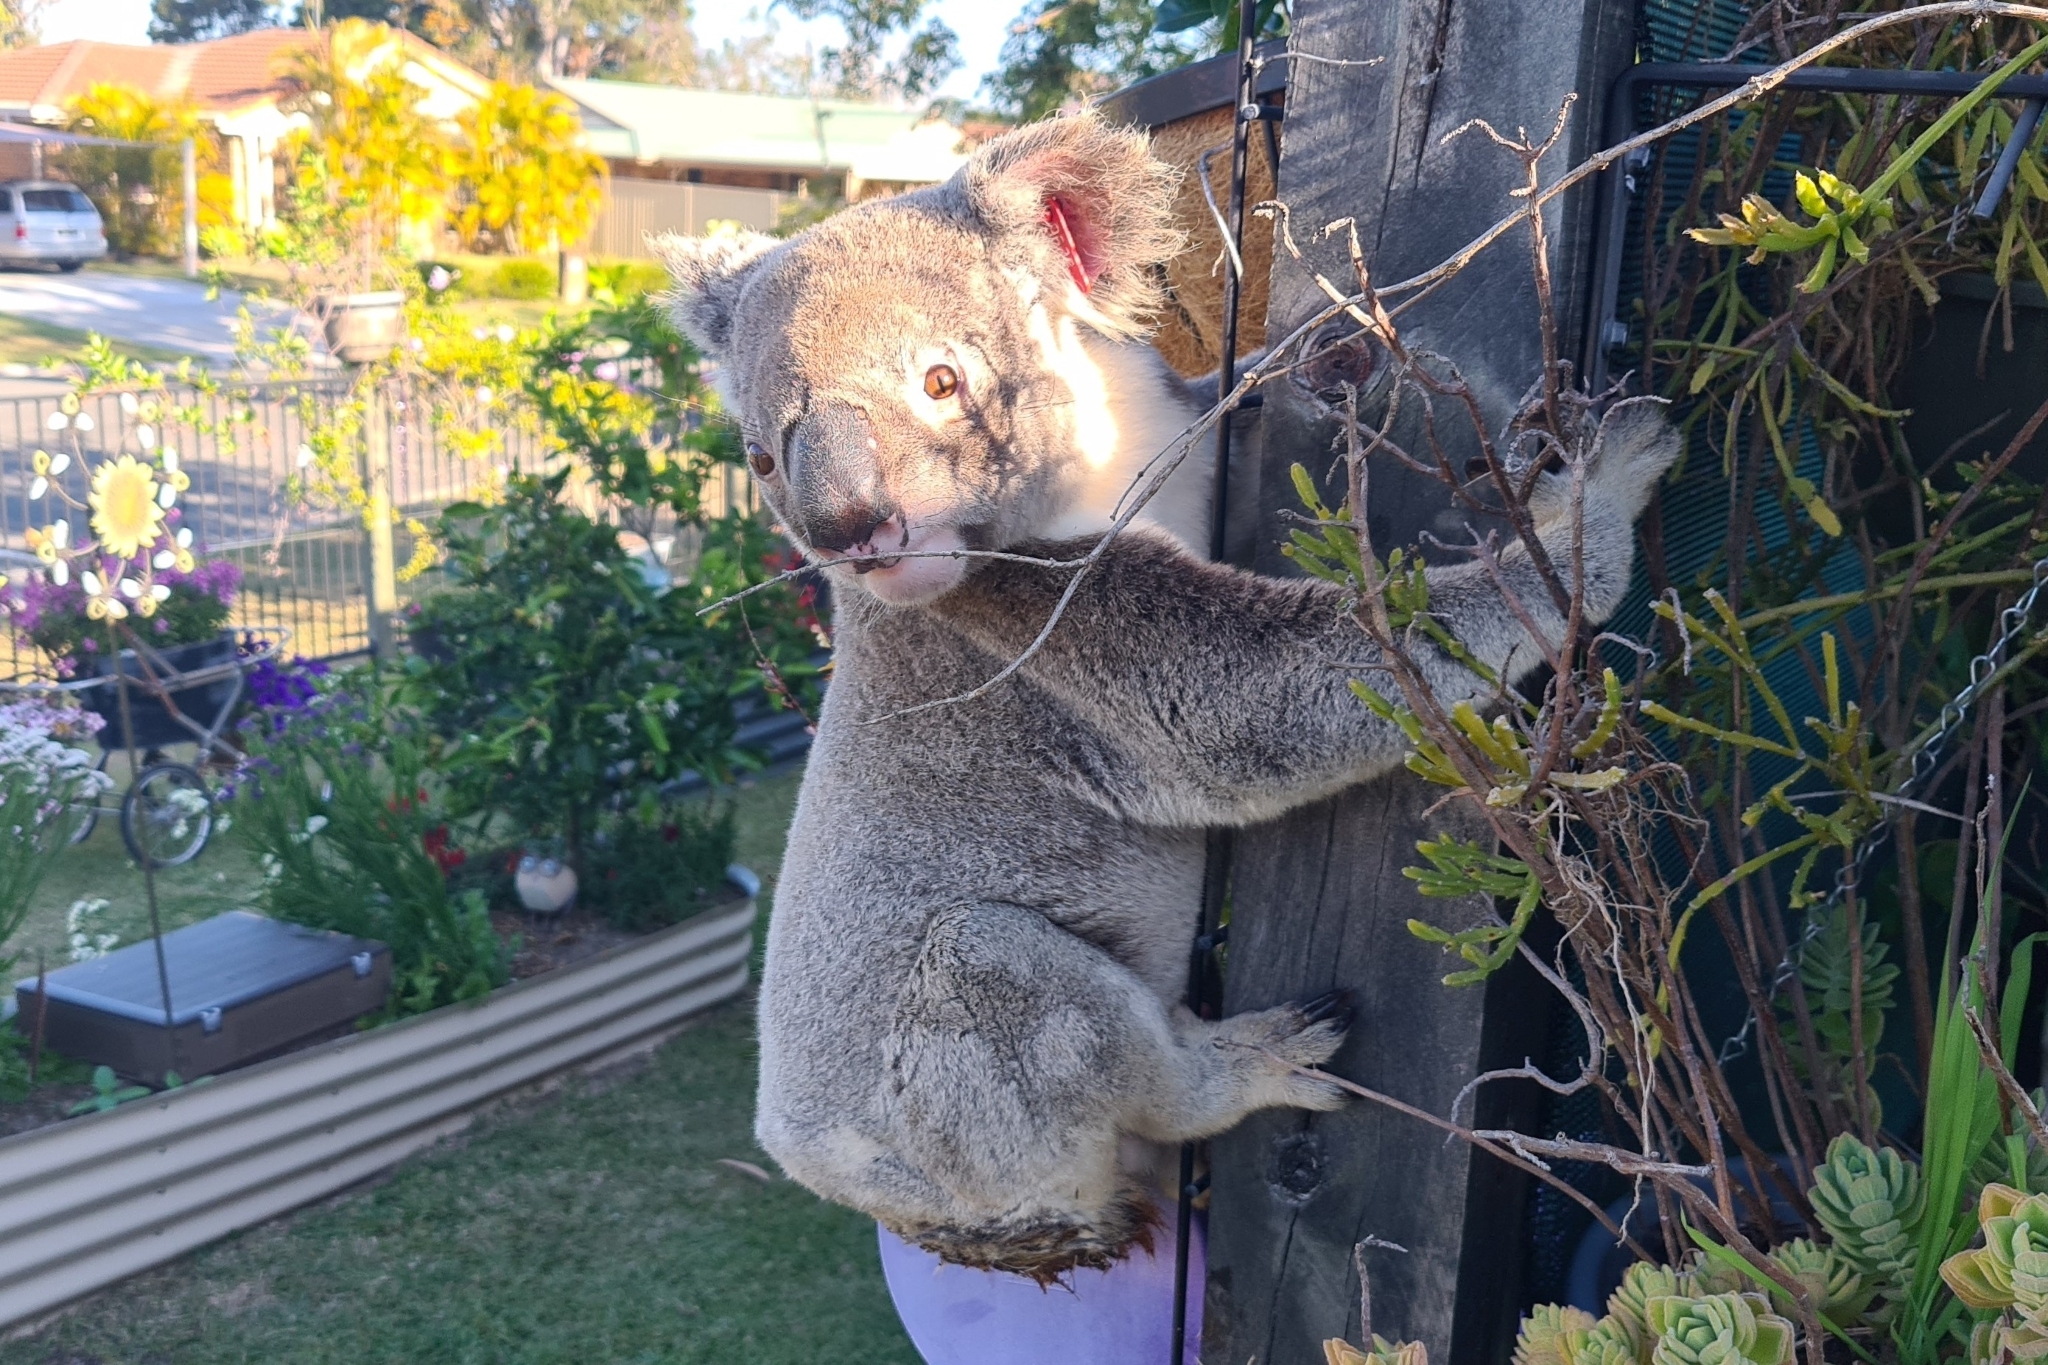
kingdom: Animalia
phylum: Chordata
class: Mammalia
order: Diprotodontia
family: Phascolarctidae
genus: Phascolarctos
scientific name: Phascolarctos cinereus
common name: Koala
